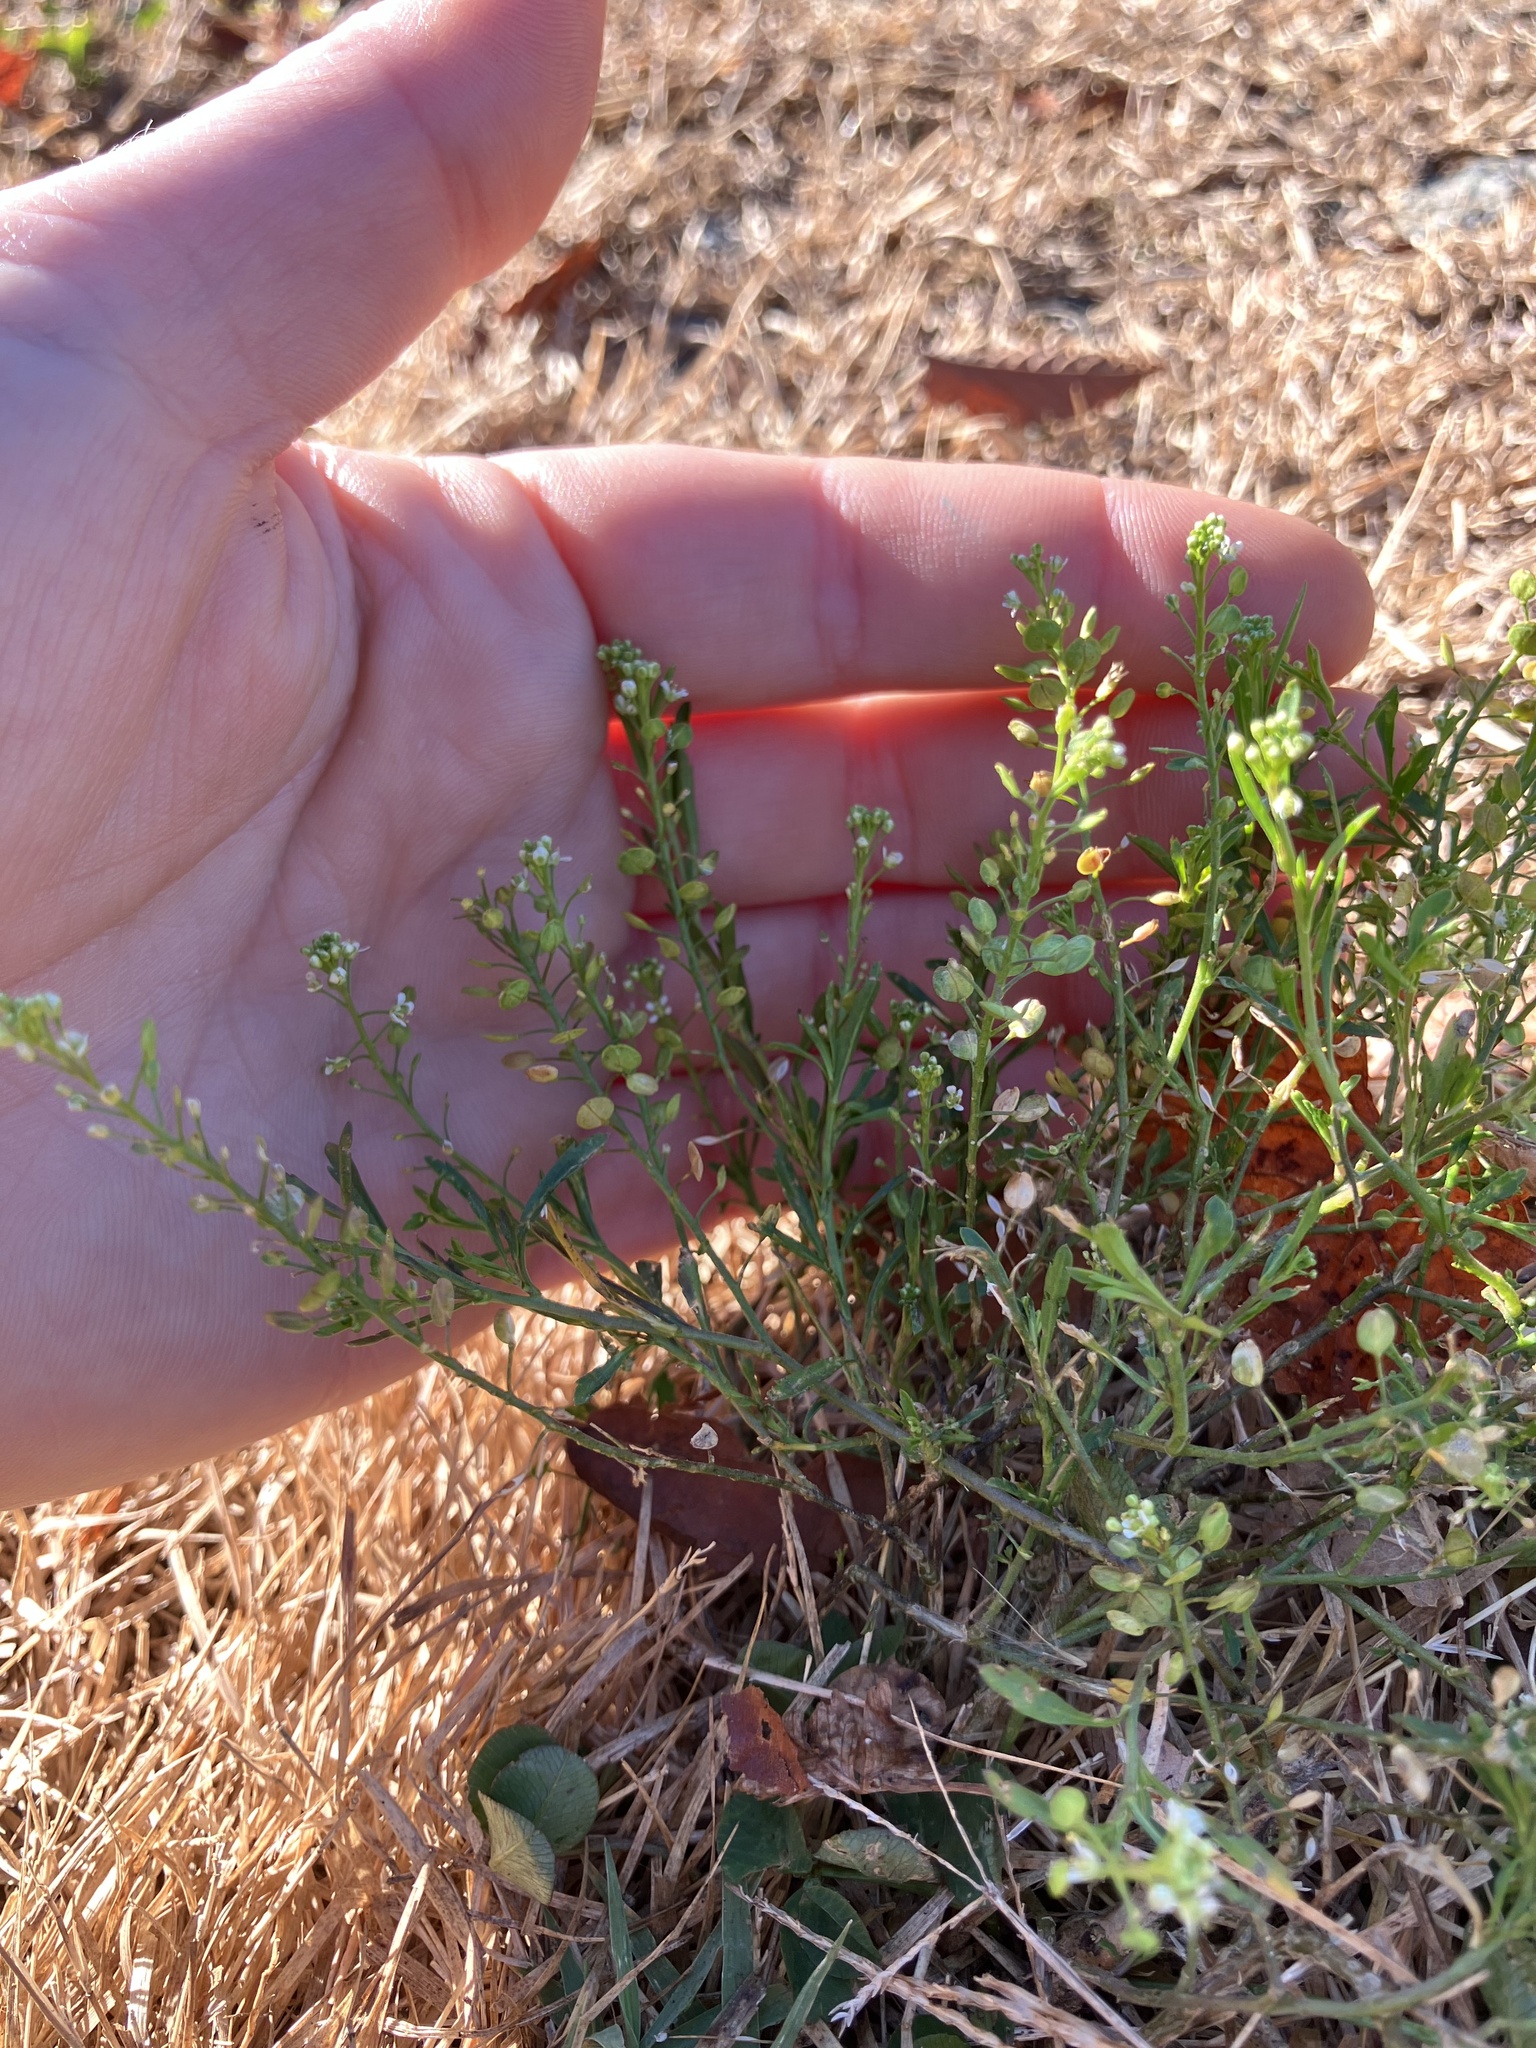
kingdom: Plantae
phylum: Tracheophyta
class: Magnoliopsida
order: Brassicales
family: Brassicaceae
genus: Lepidium
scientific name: Lepidium virginicum
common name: Least pepperwort
